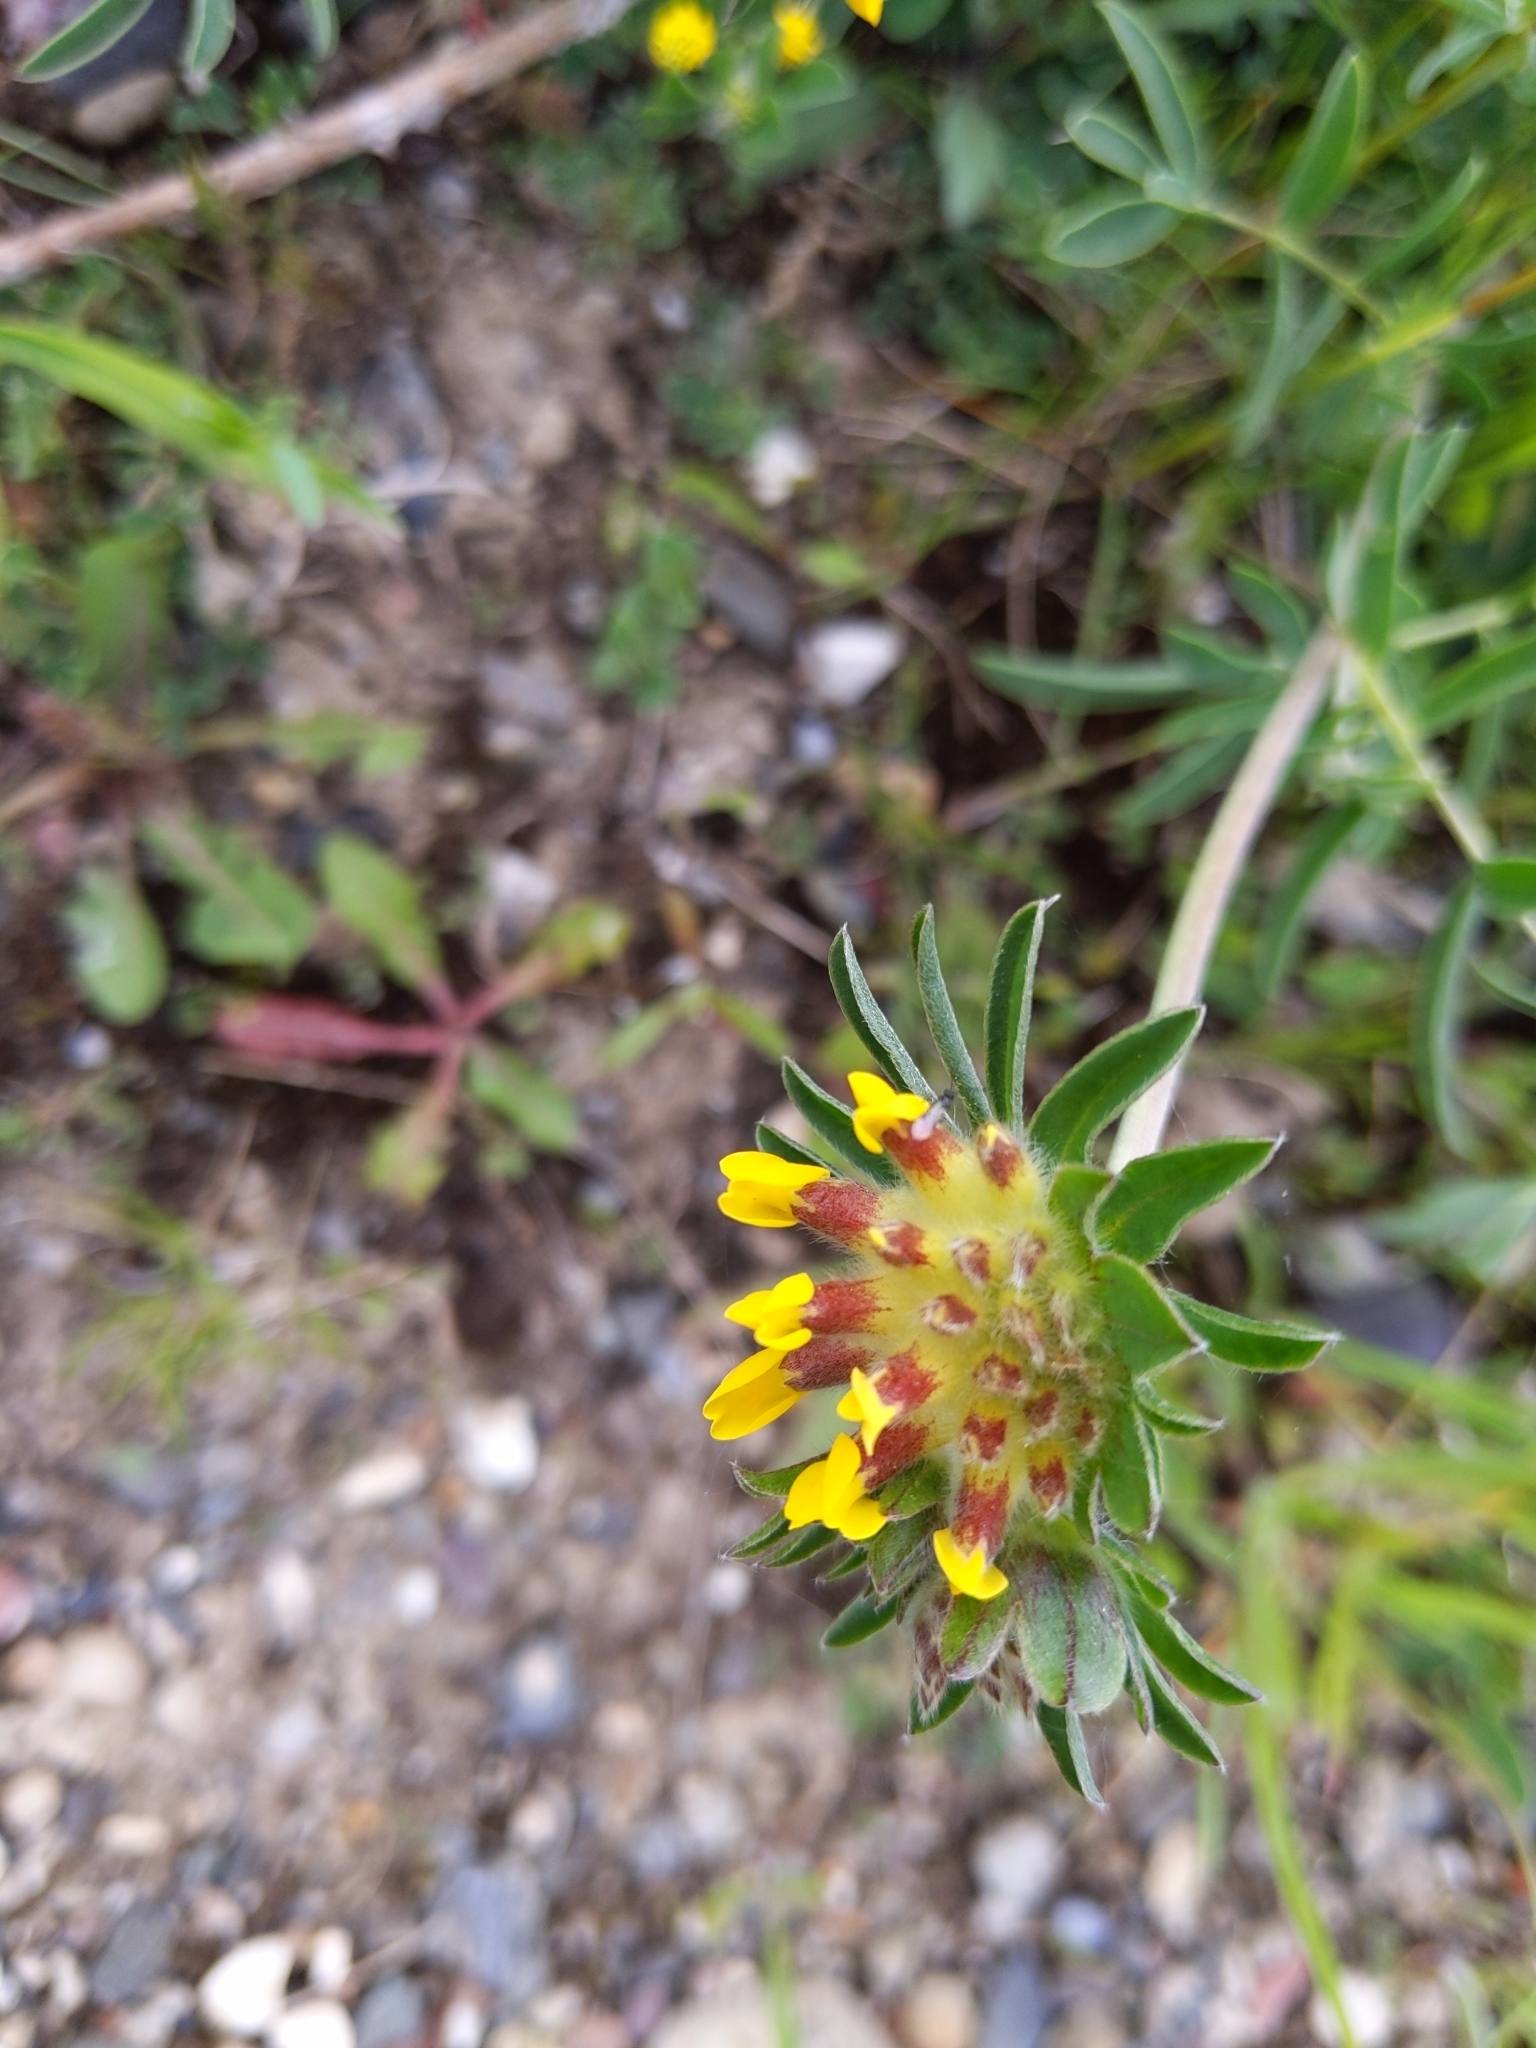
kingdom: Plantae
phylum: Tracheophyta
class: Magnoliopsida
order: Fabales
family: Fabaceae
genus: Anthyllis
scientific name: Anthyllis vulneraria
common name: Kidney vetch
